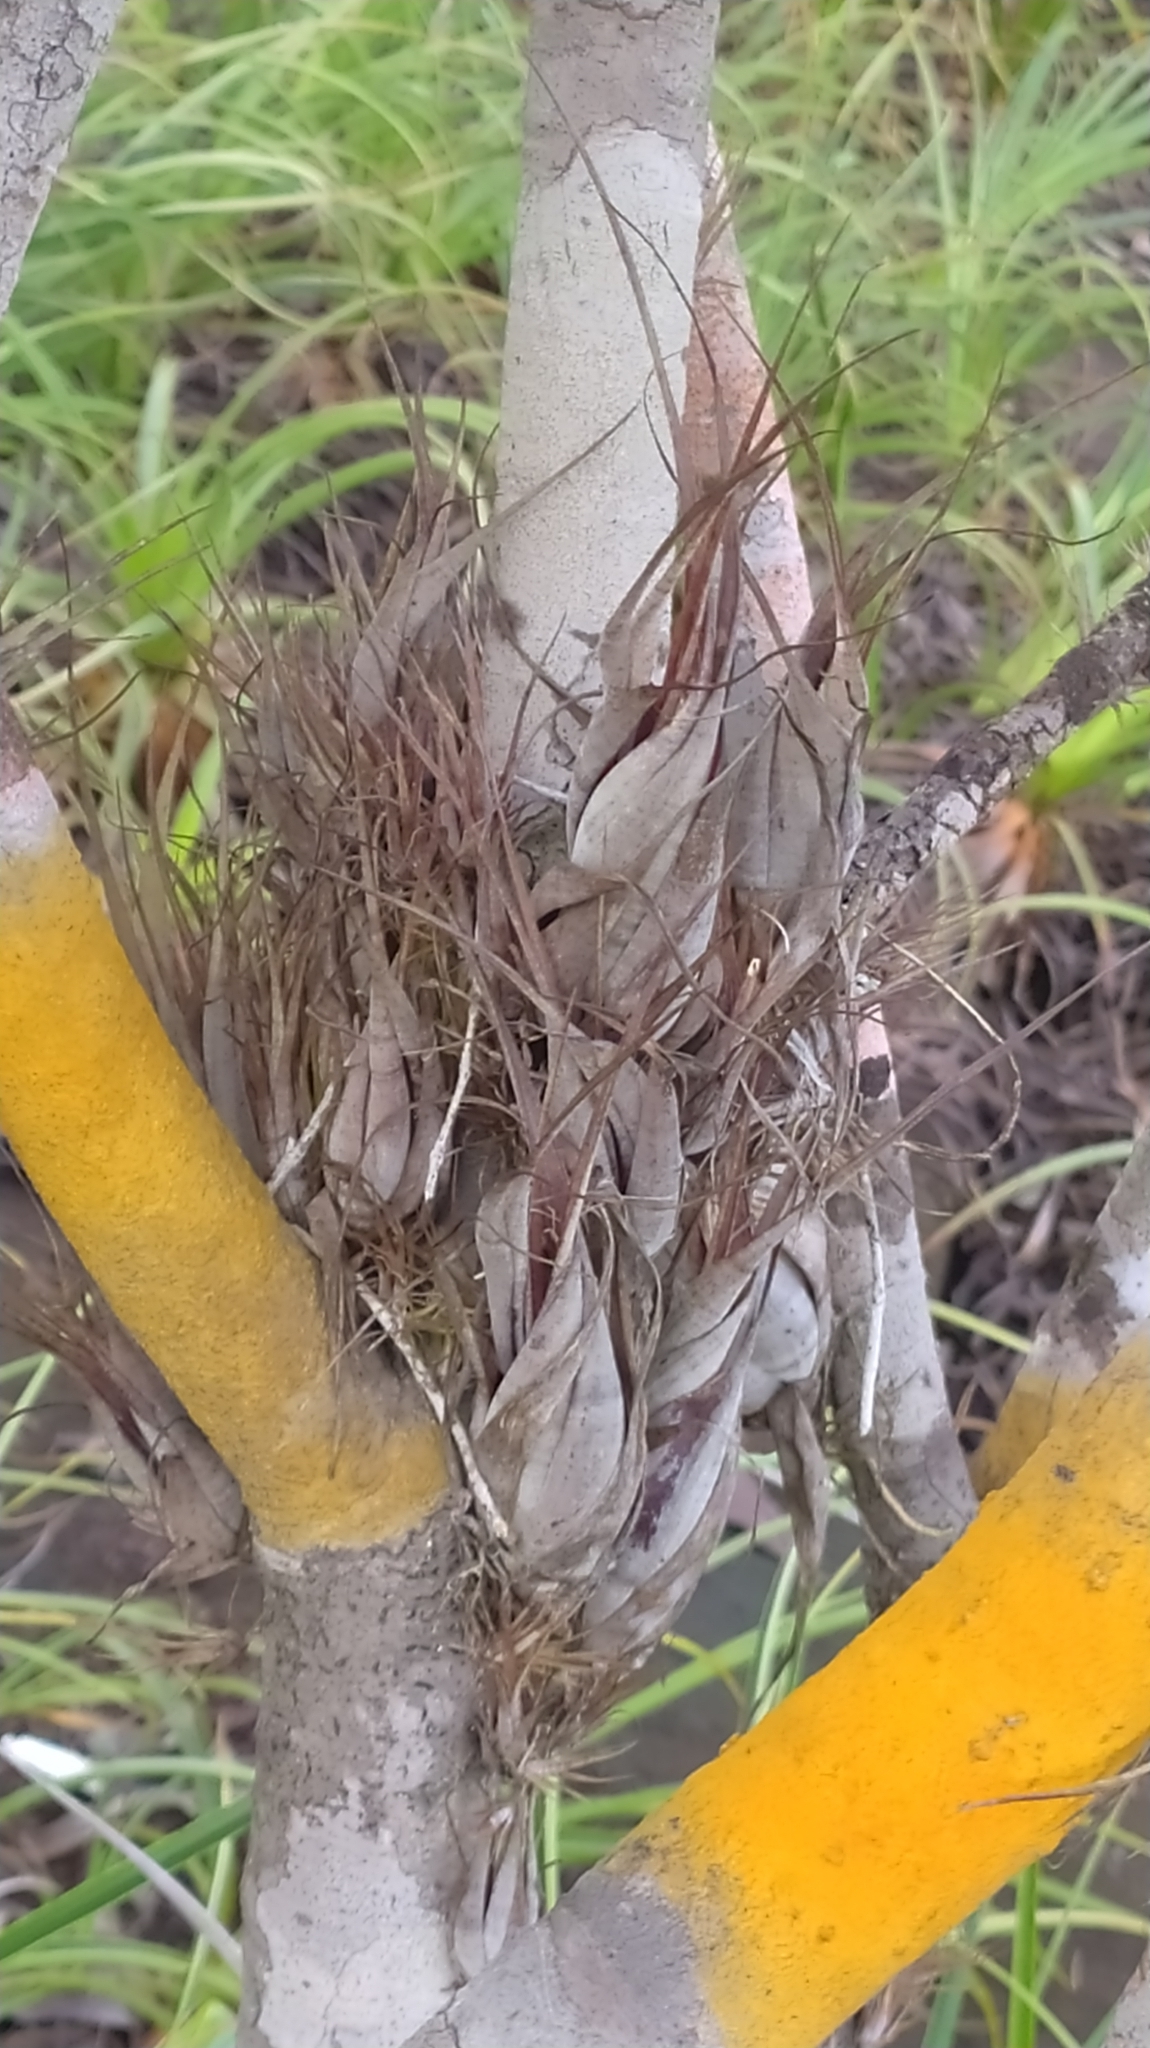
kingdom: Plantae
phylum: Tracheophyta
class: Liliopsida
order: Poales
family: Bromeliaceae
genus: Tillandsia
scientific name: Tillandsia flexuosa
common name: Banded airplant
